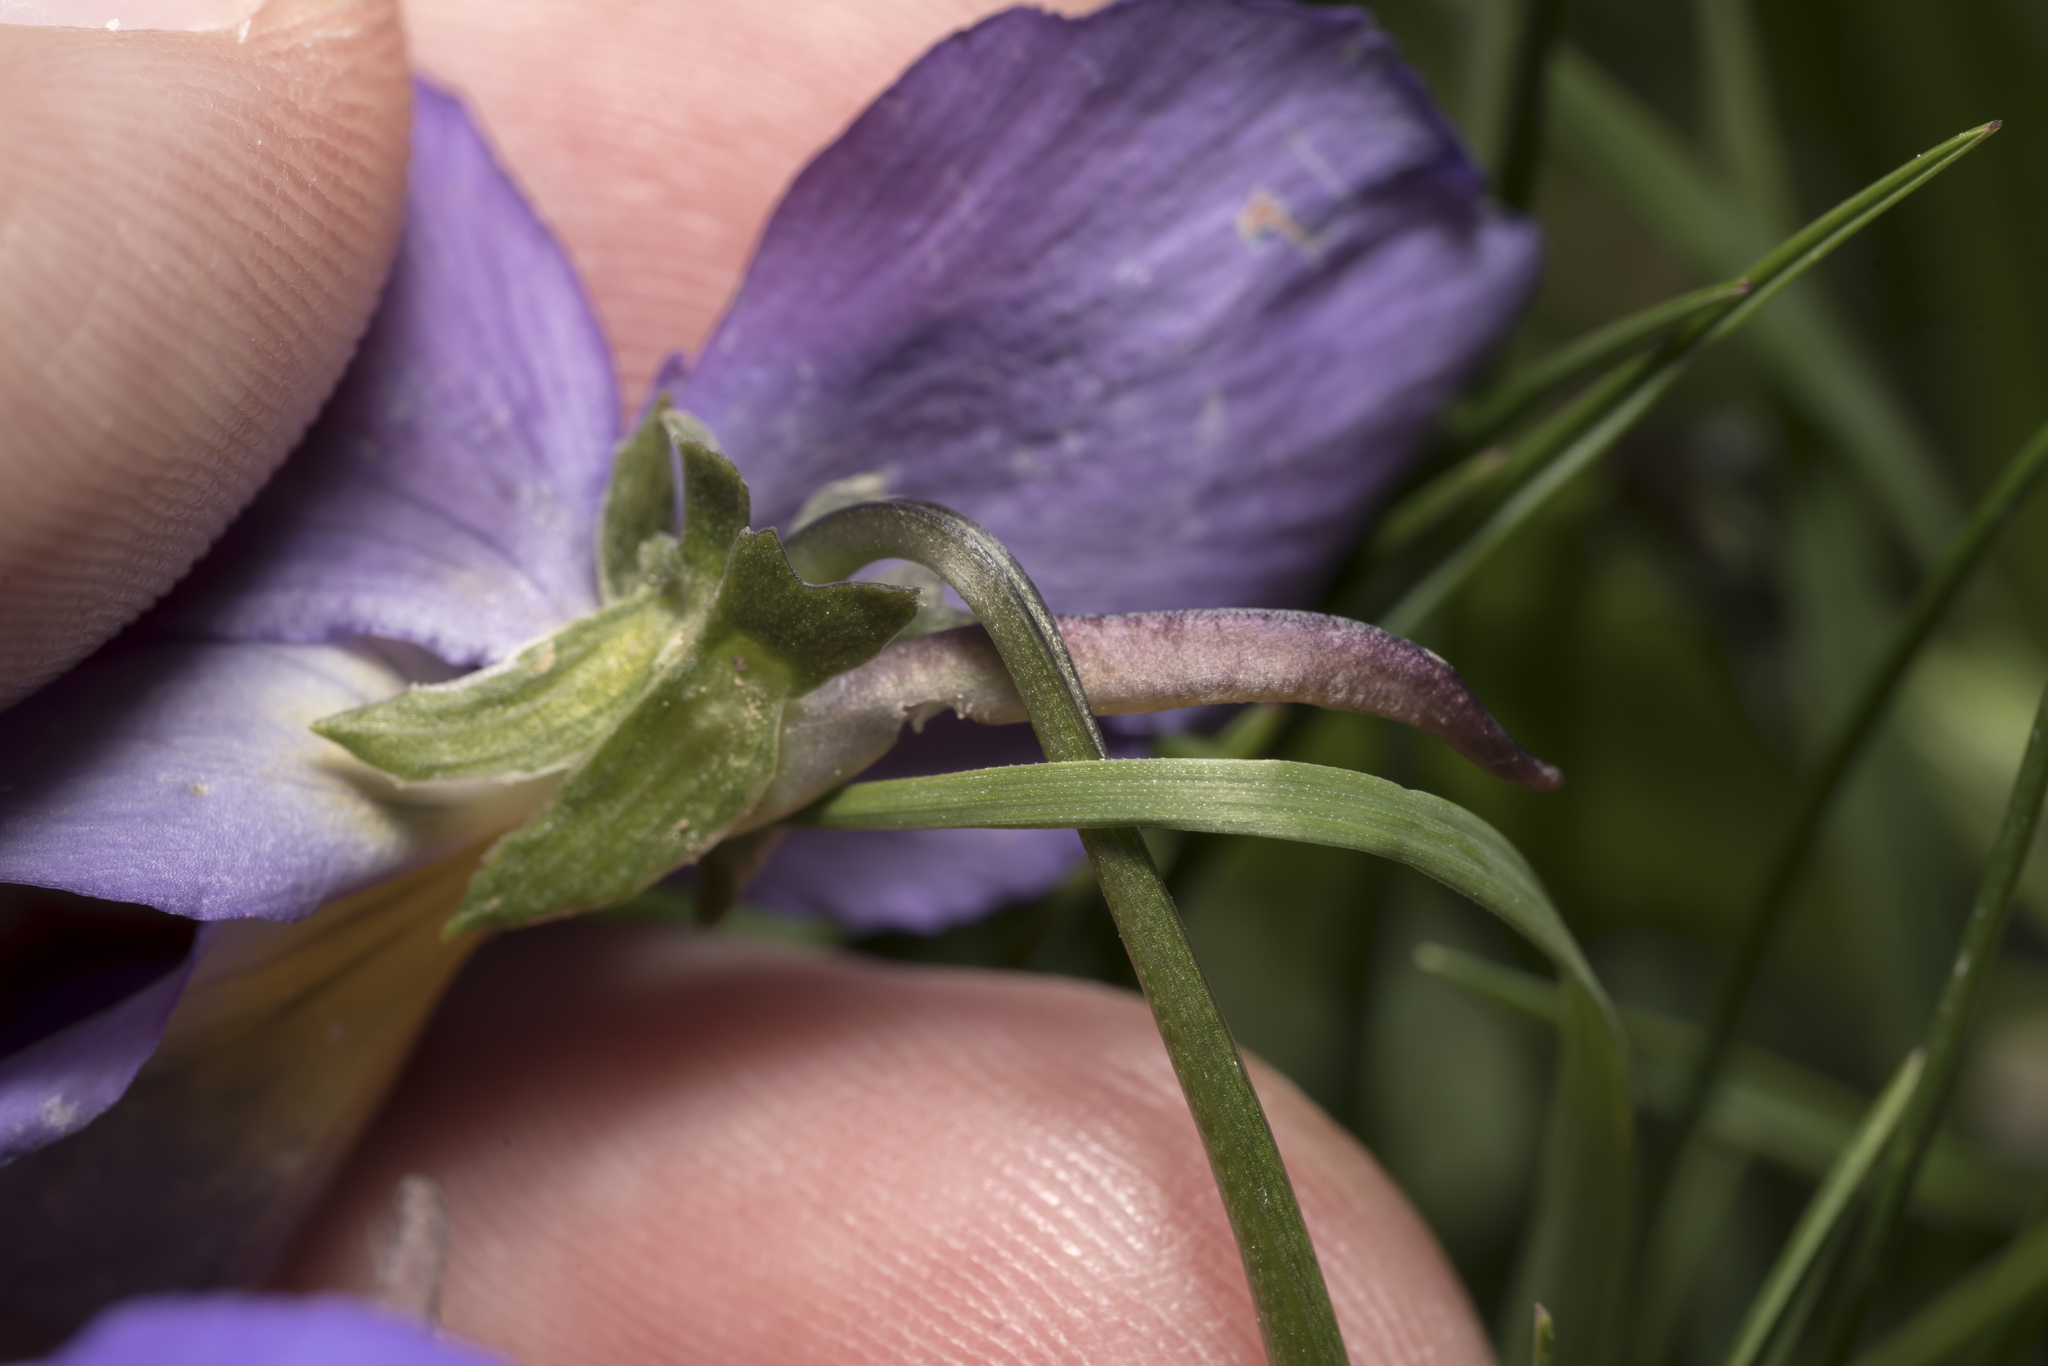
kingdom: Plantae
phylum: Tracheophyta
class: Magnoliopsida
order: Malpighiales
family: Violaceae
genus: Viola
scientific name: Viola calcarata
